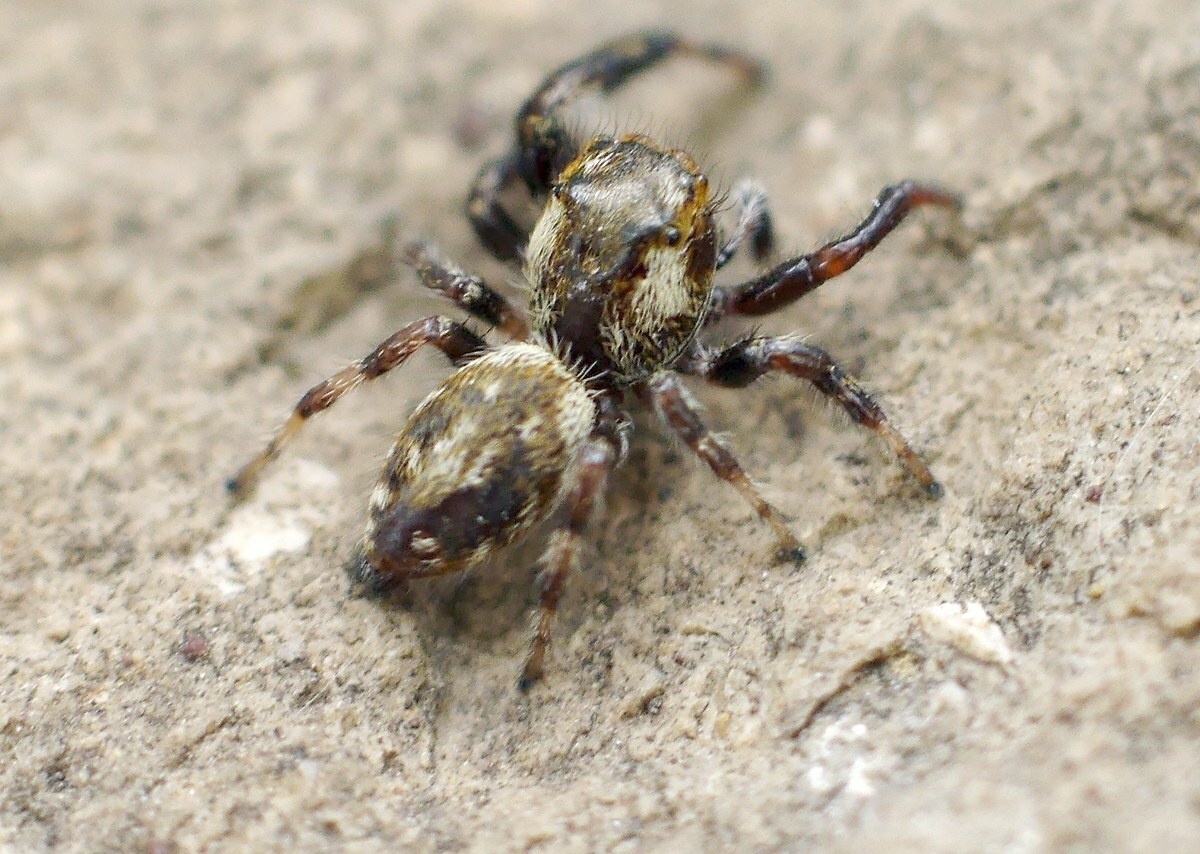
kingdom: Animalia
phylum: Arthropoda
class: Arachnida
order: Araneae
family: Salticidae
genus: Macaroeris
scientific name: Macaroeris nidicolens
